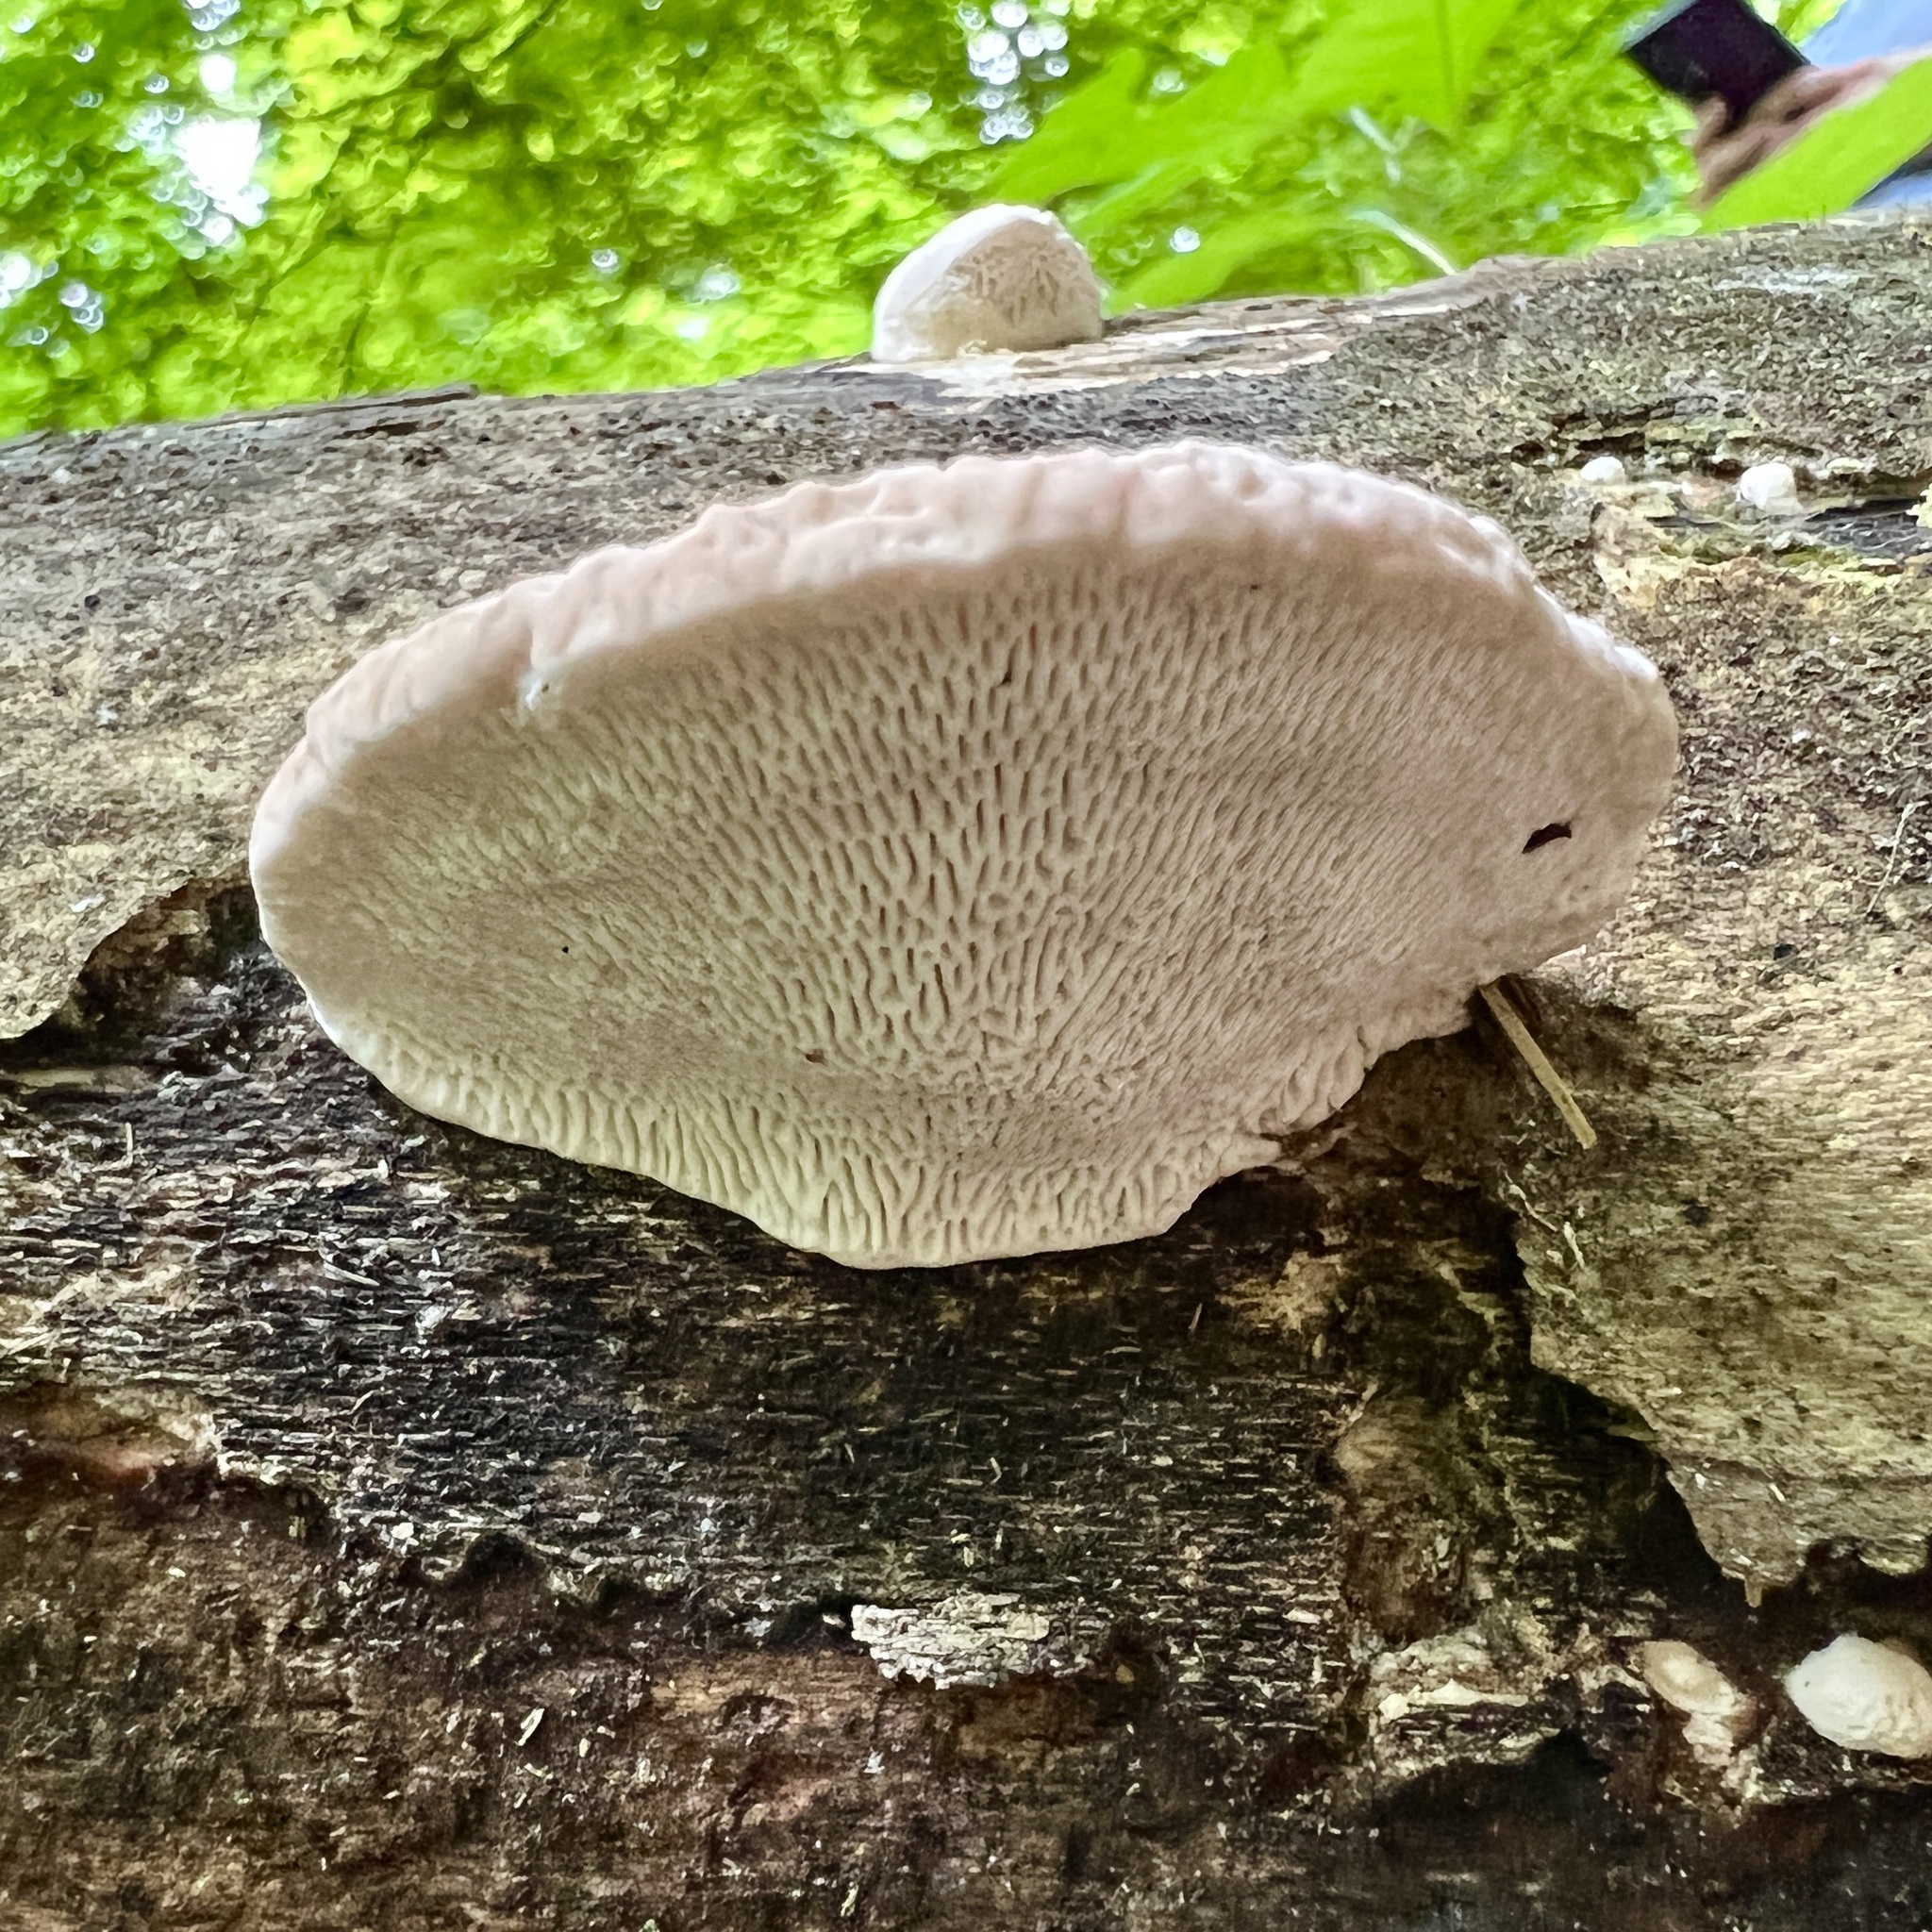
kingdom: Fungi
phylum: Basidiomycota
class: Agaricomycetes
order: Polyporales
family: Polyporaceae
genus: Trametes
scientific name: Trametes gibbosa
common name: Lumpy bracket
